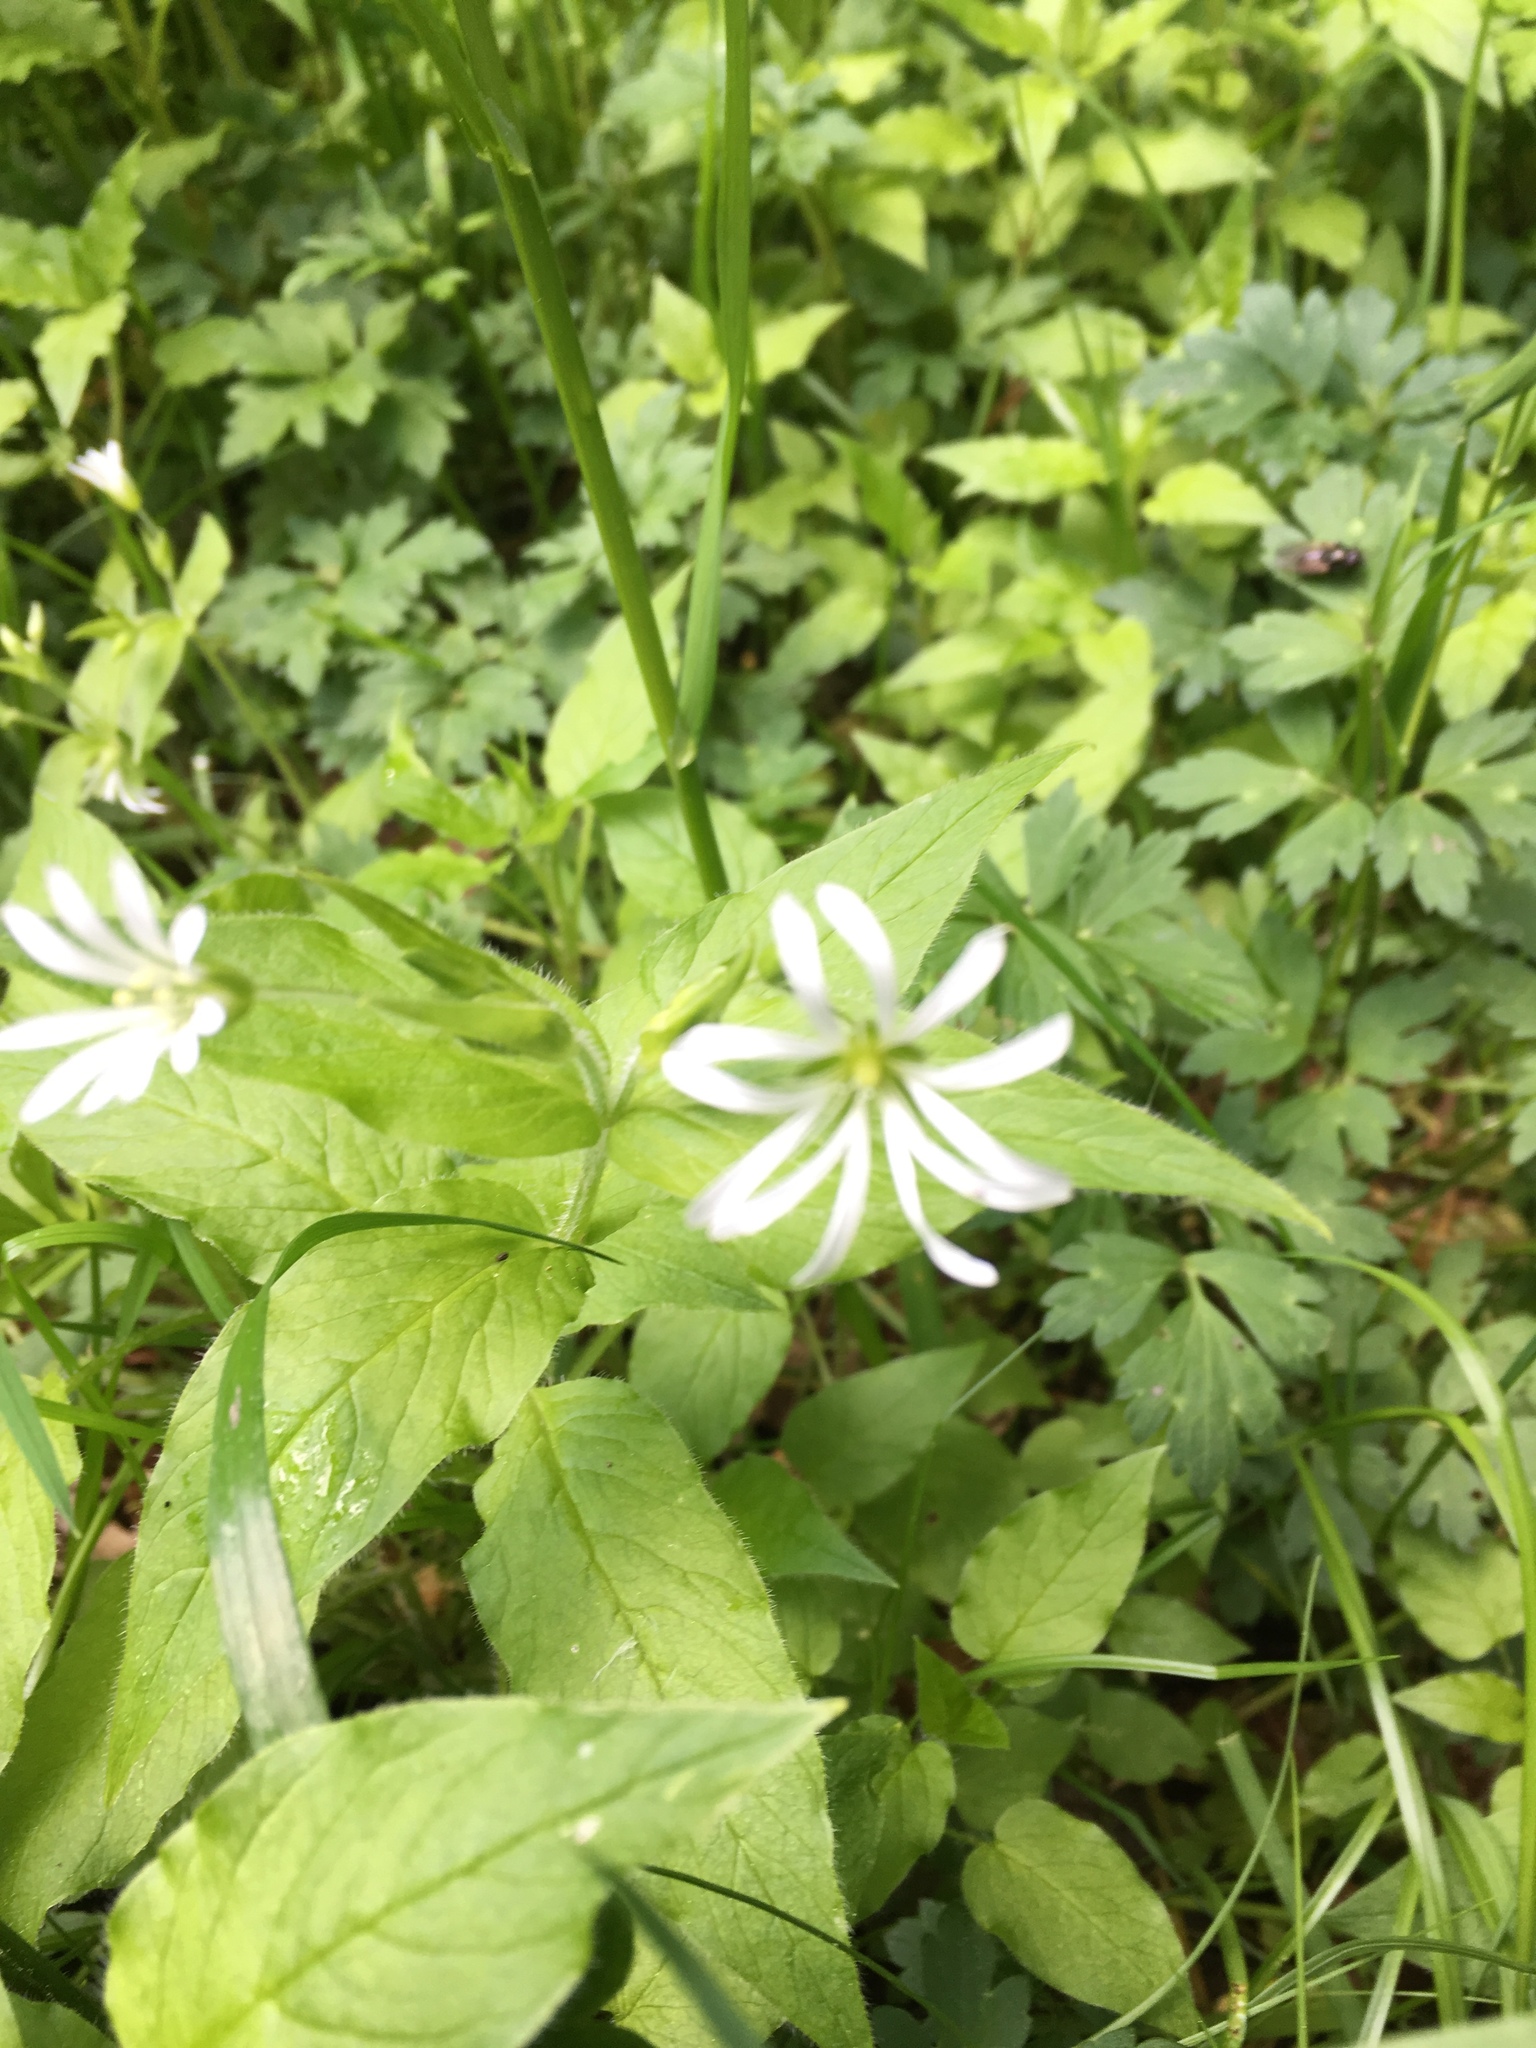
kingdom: Plantae
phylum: Tracheophyta
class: Magnoliopsida
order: Caryophyllales
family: Caryophyllaceae
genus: Stellaria
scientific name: Stellaria nemorum
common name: Wood stitchwort
